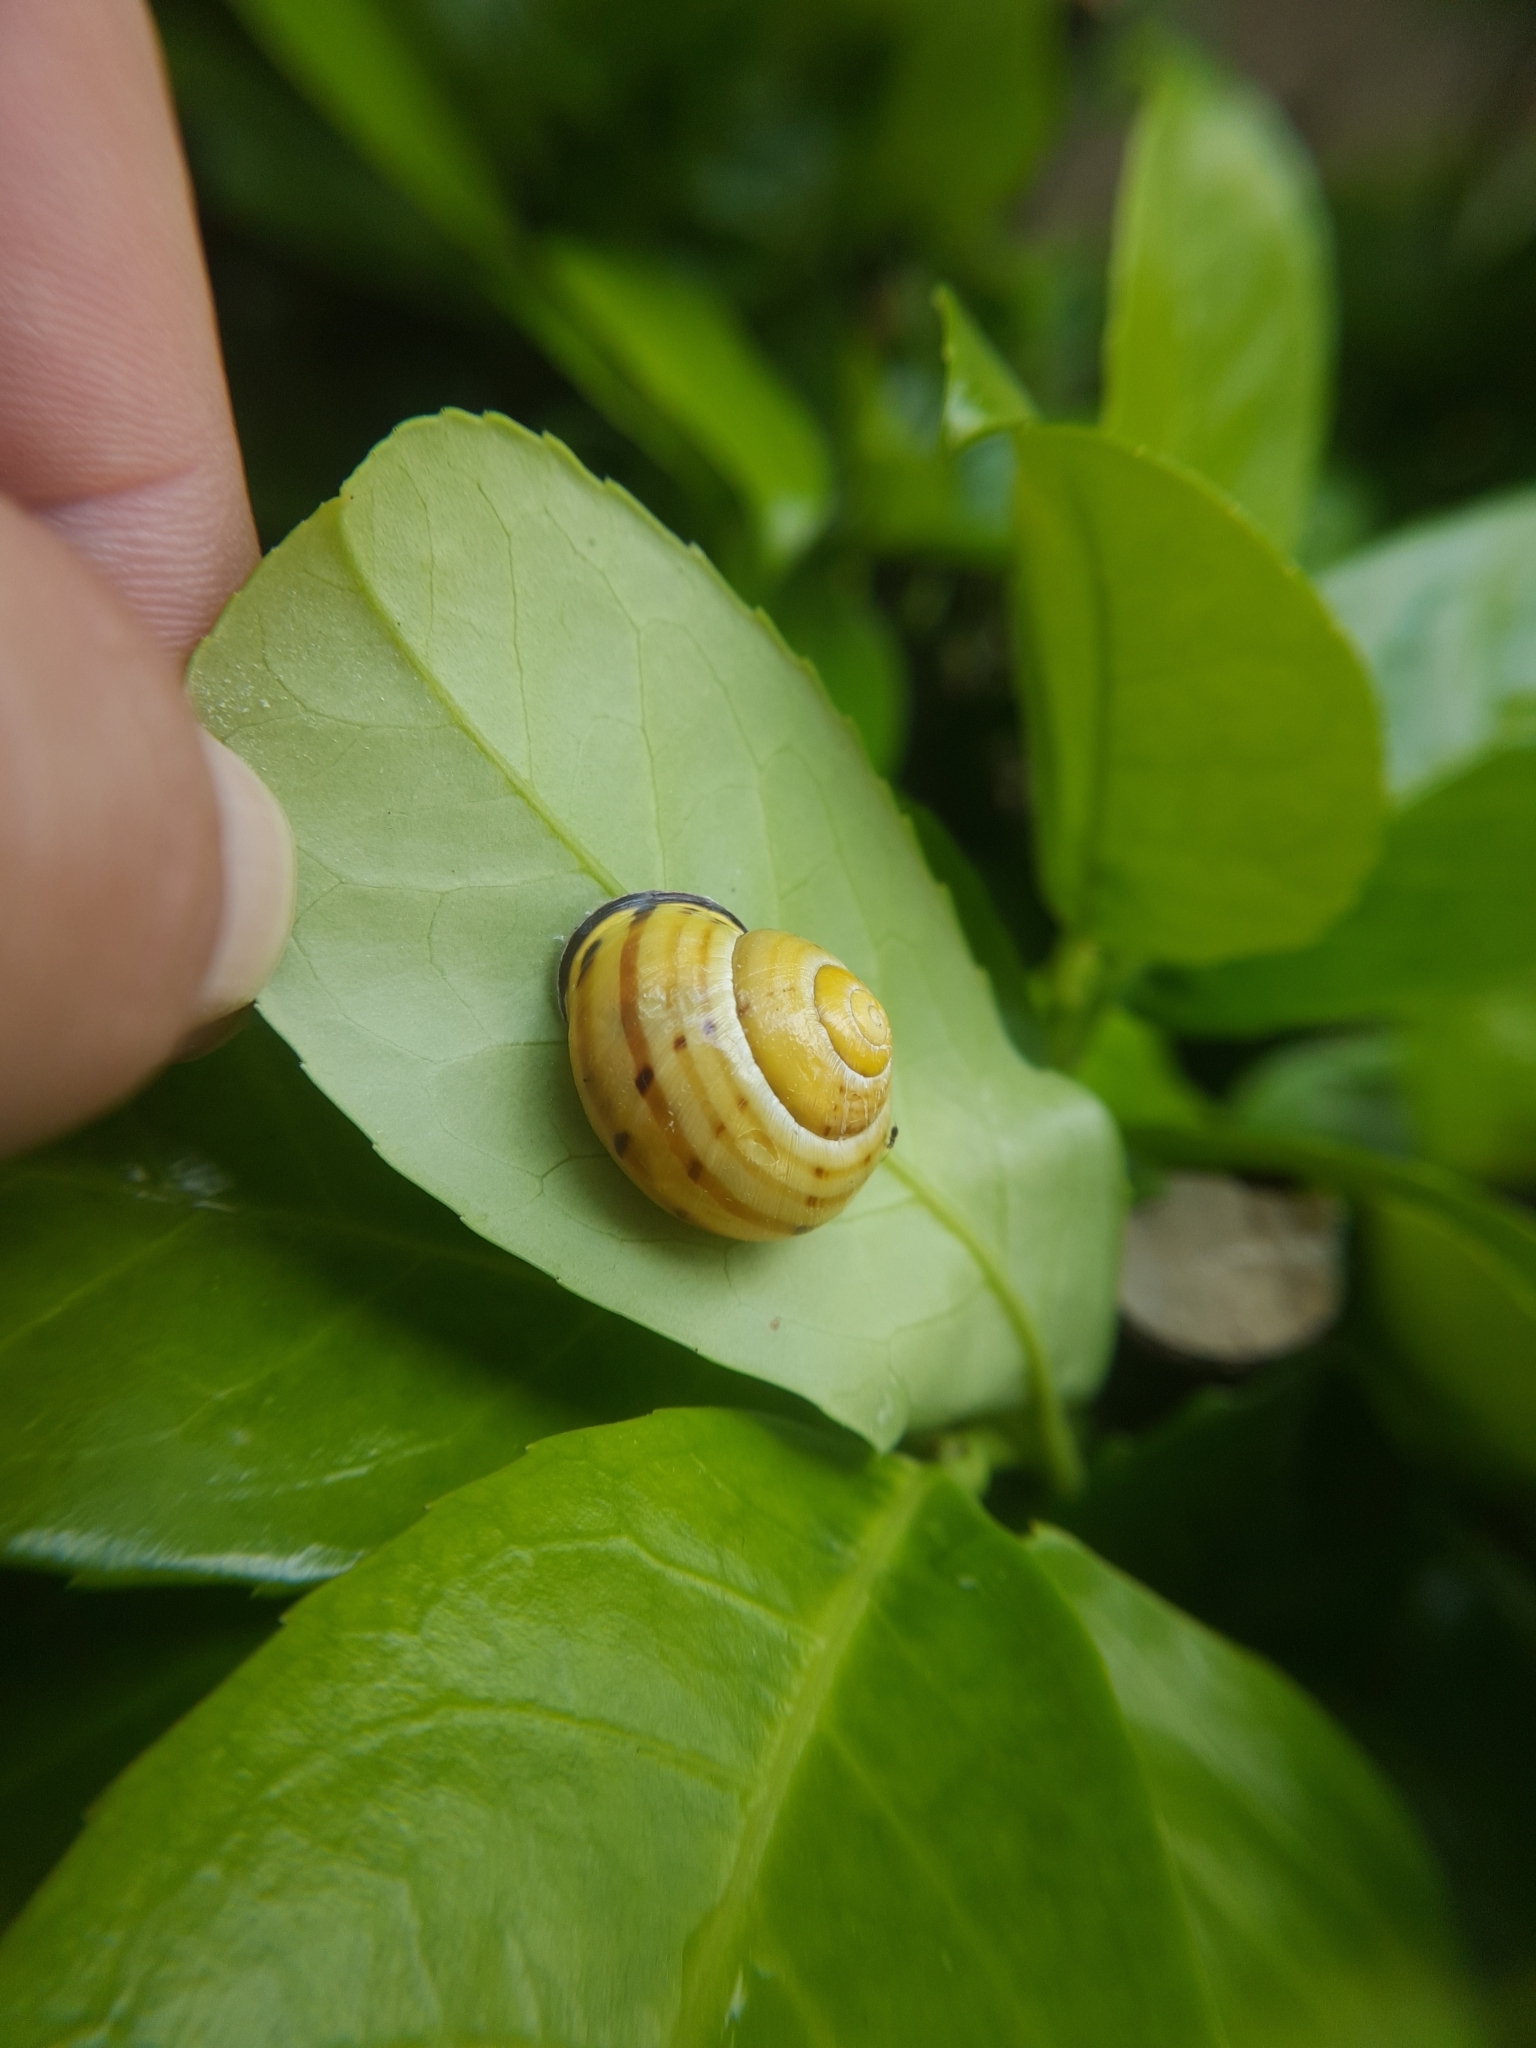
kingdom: Animalia
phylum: Mollusca
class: Gastropoda
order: Stylommatophora
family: Helicidae
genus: Cepaea
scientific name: Cepaea nemoralis
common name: Grovesnail
